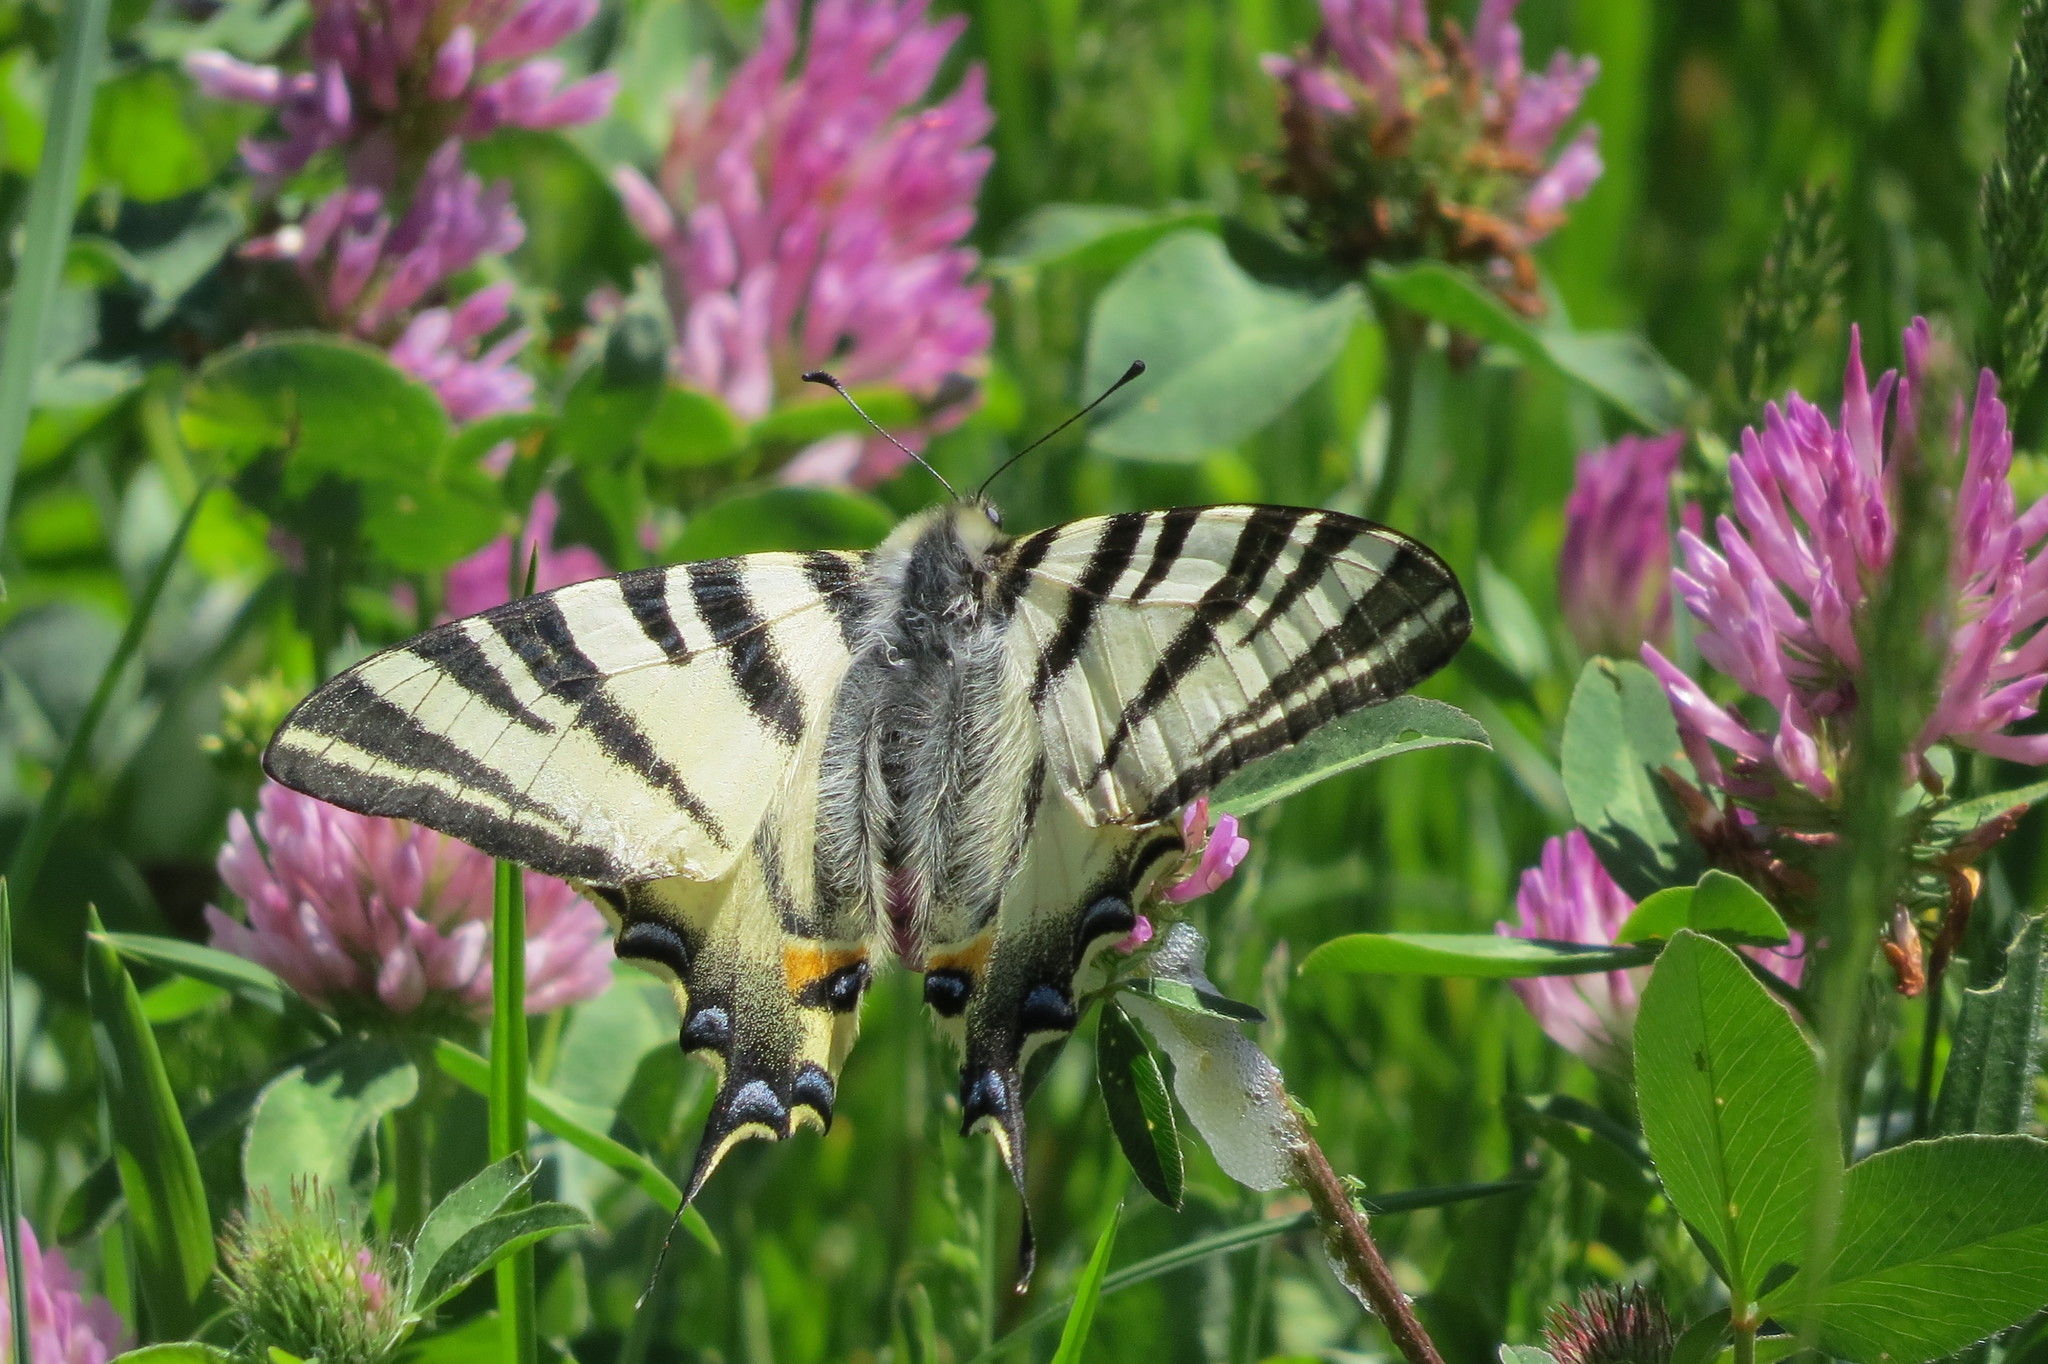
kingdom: Animalia
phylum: Arthropoda
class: Insecta
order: Lepidoptera
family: Papilionidae
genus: Iphiclides
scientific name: Iphiclides podalirius
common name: Scarce swallowtail
